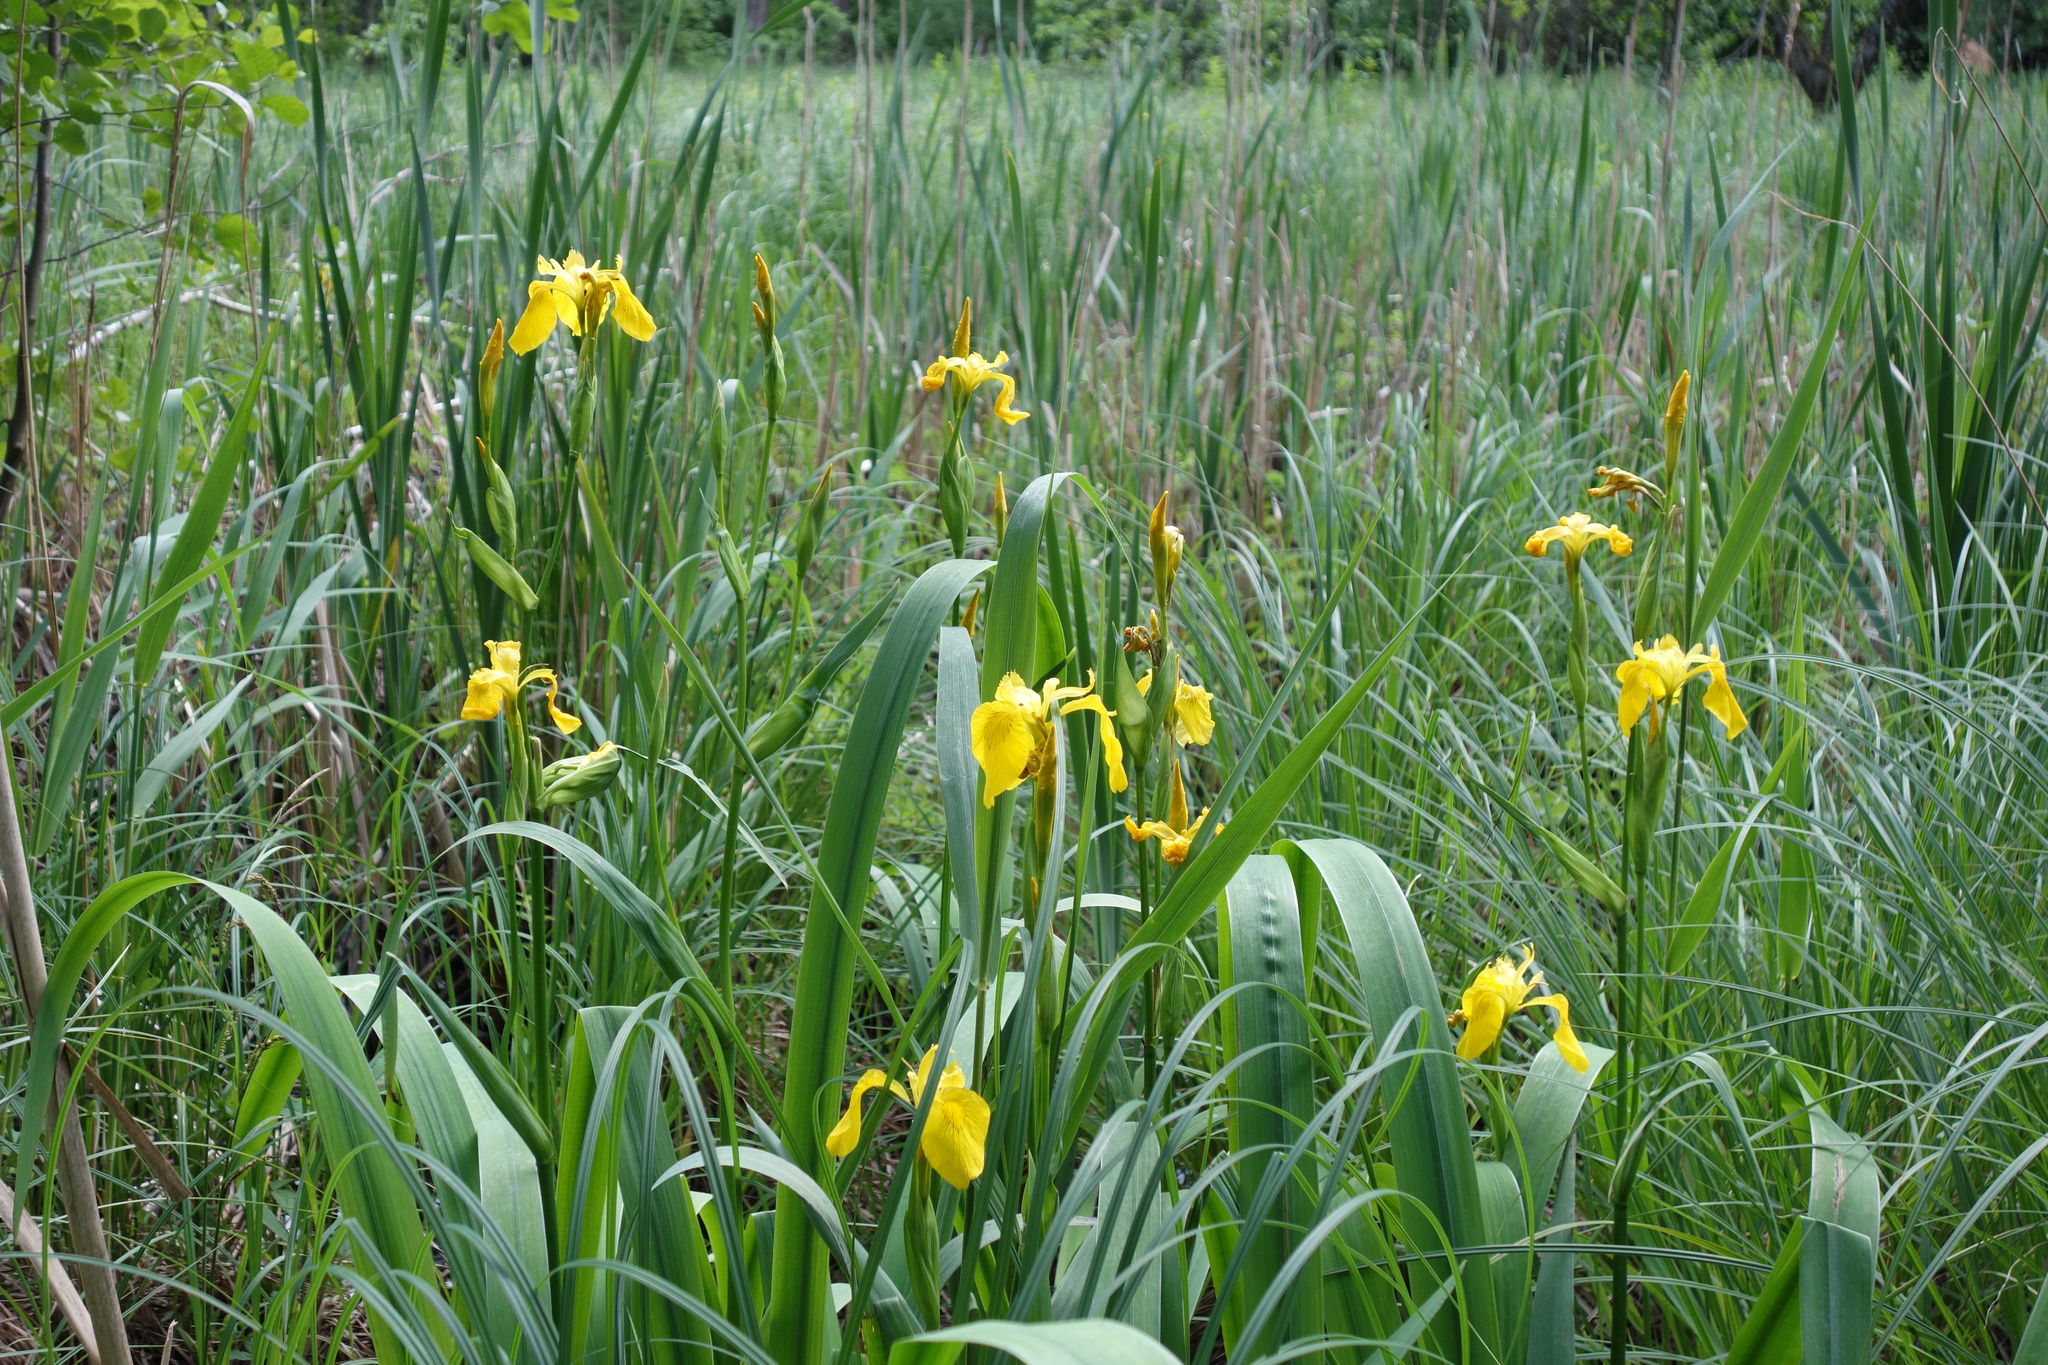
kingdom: Plantae
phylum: Tracheophyta
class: Liliopsida
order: Asparagales
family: Iridaceae
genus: Iris
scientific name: Iris pseudacorus
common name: Yellow flag
